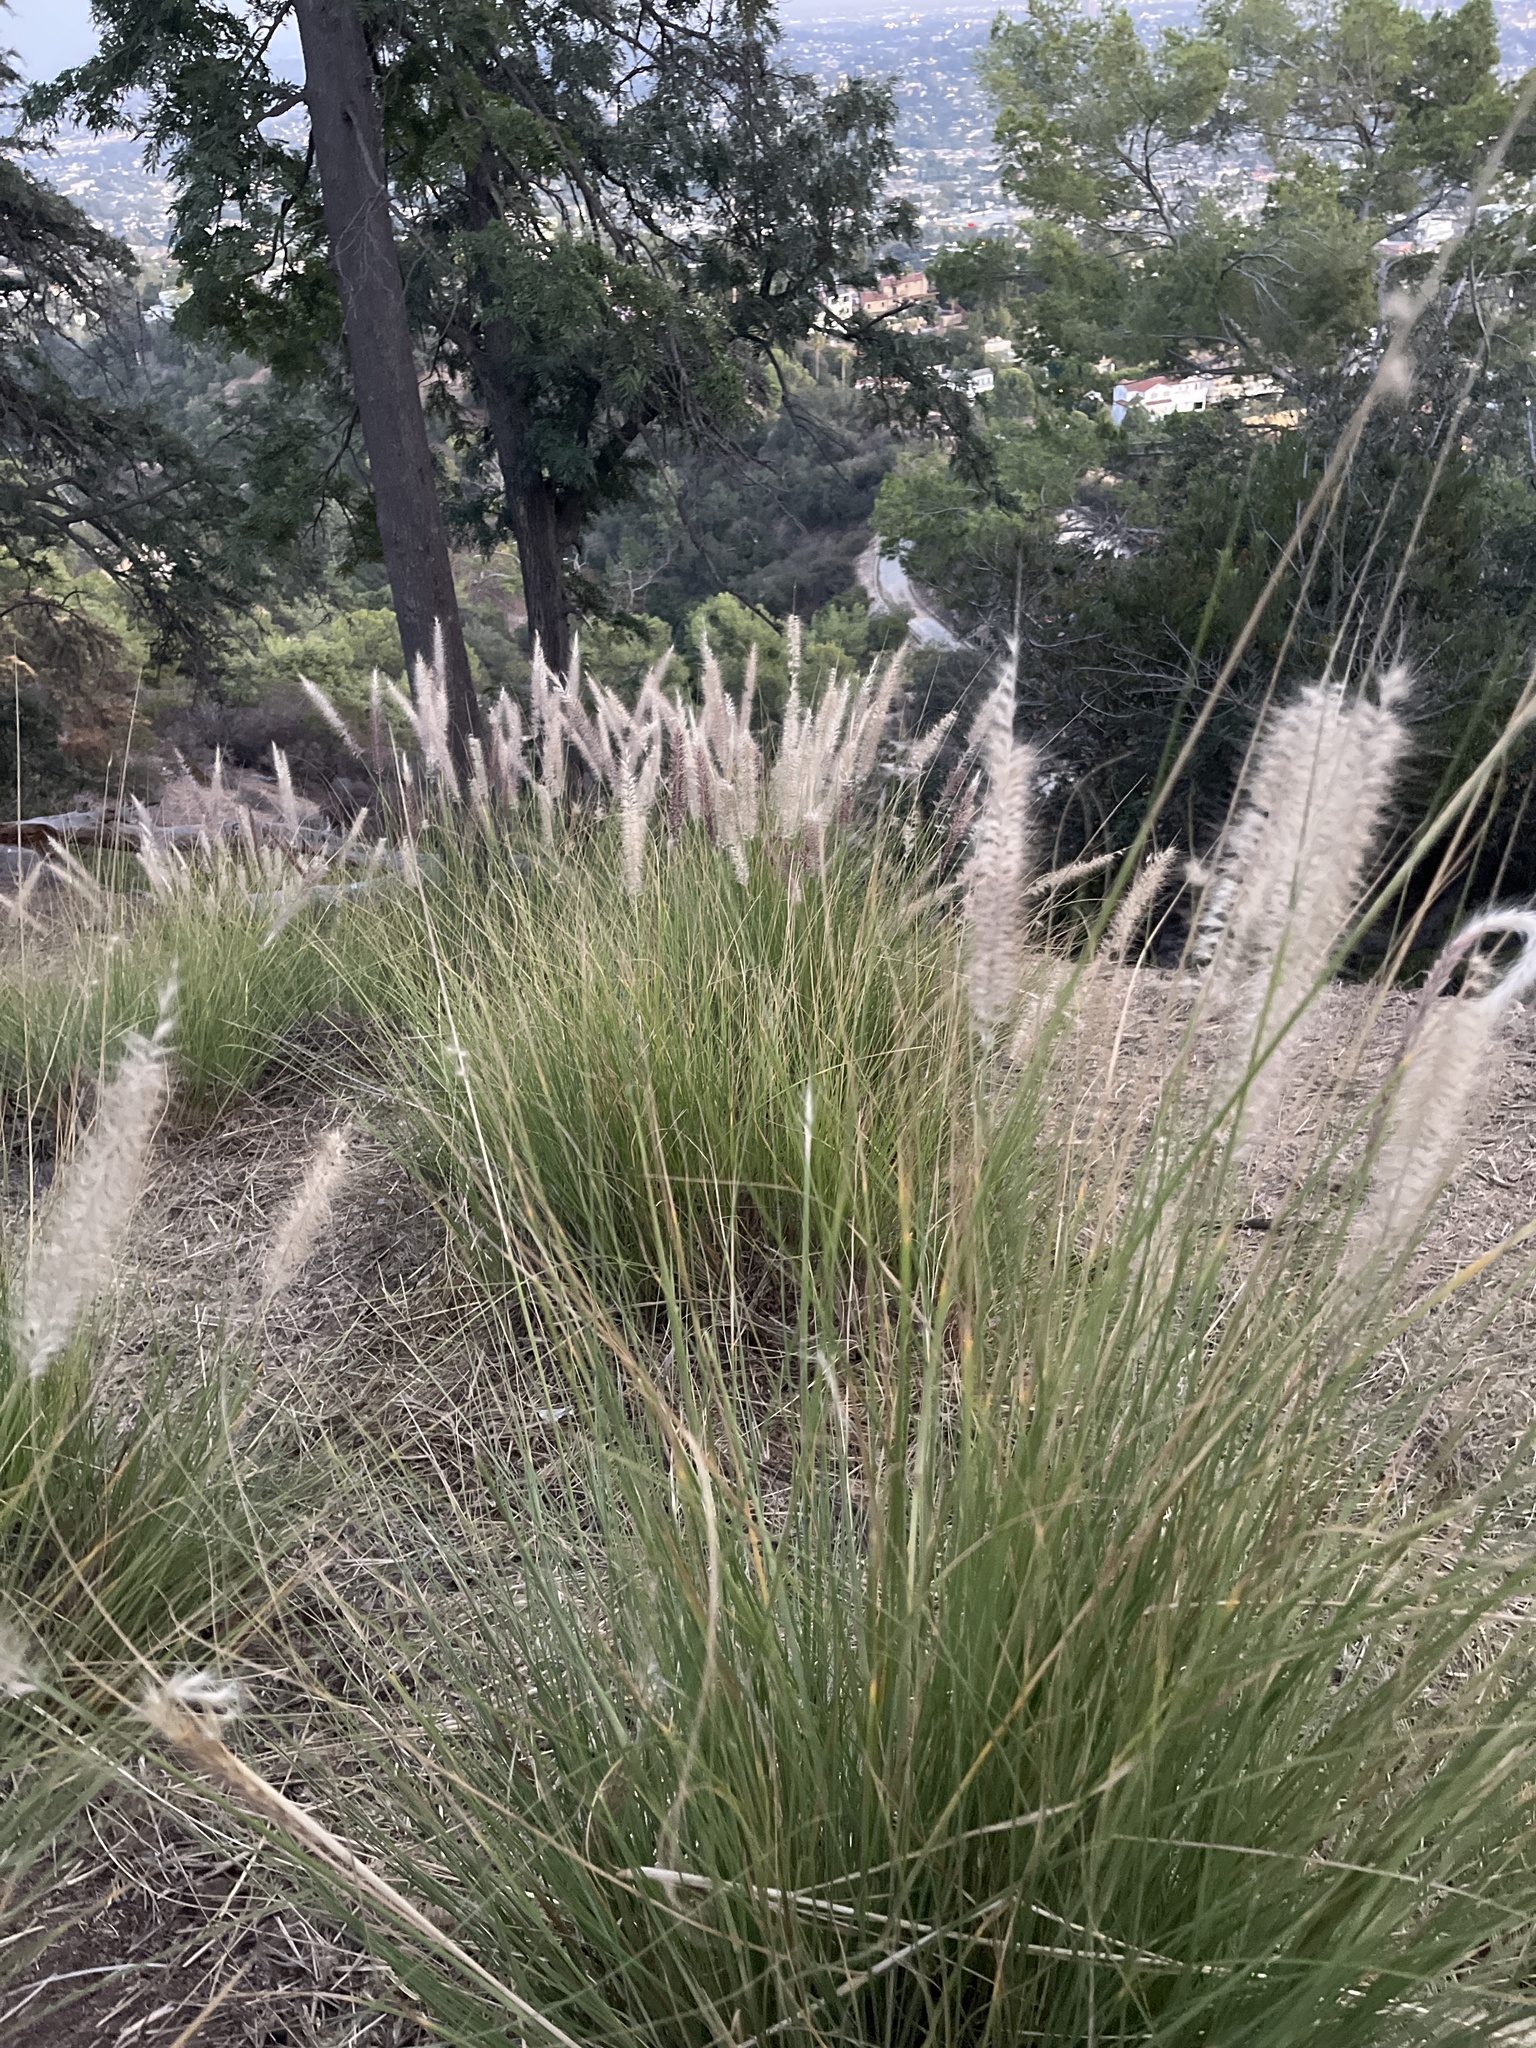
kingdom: Plantae
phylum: Tracheophyta
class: Liliopsida
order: Poales
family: Poaceae
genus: Cenchrus
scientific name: Cenchrus setaceus
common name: Crimson fountaingrass
